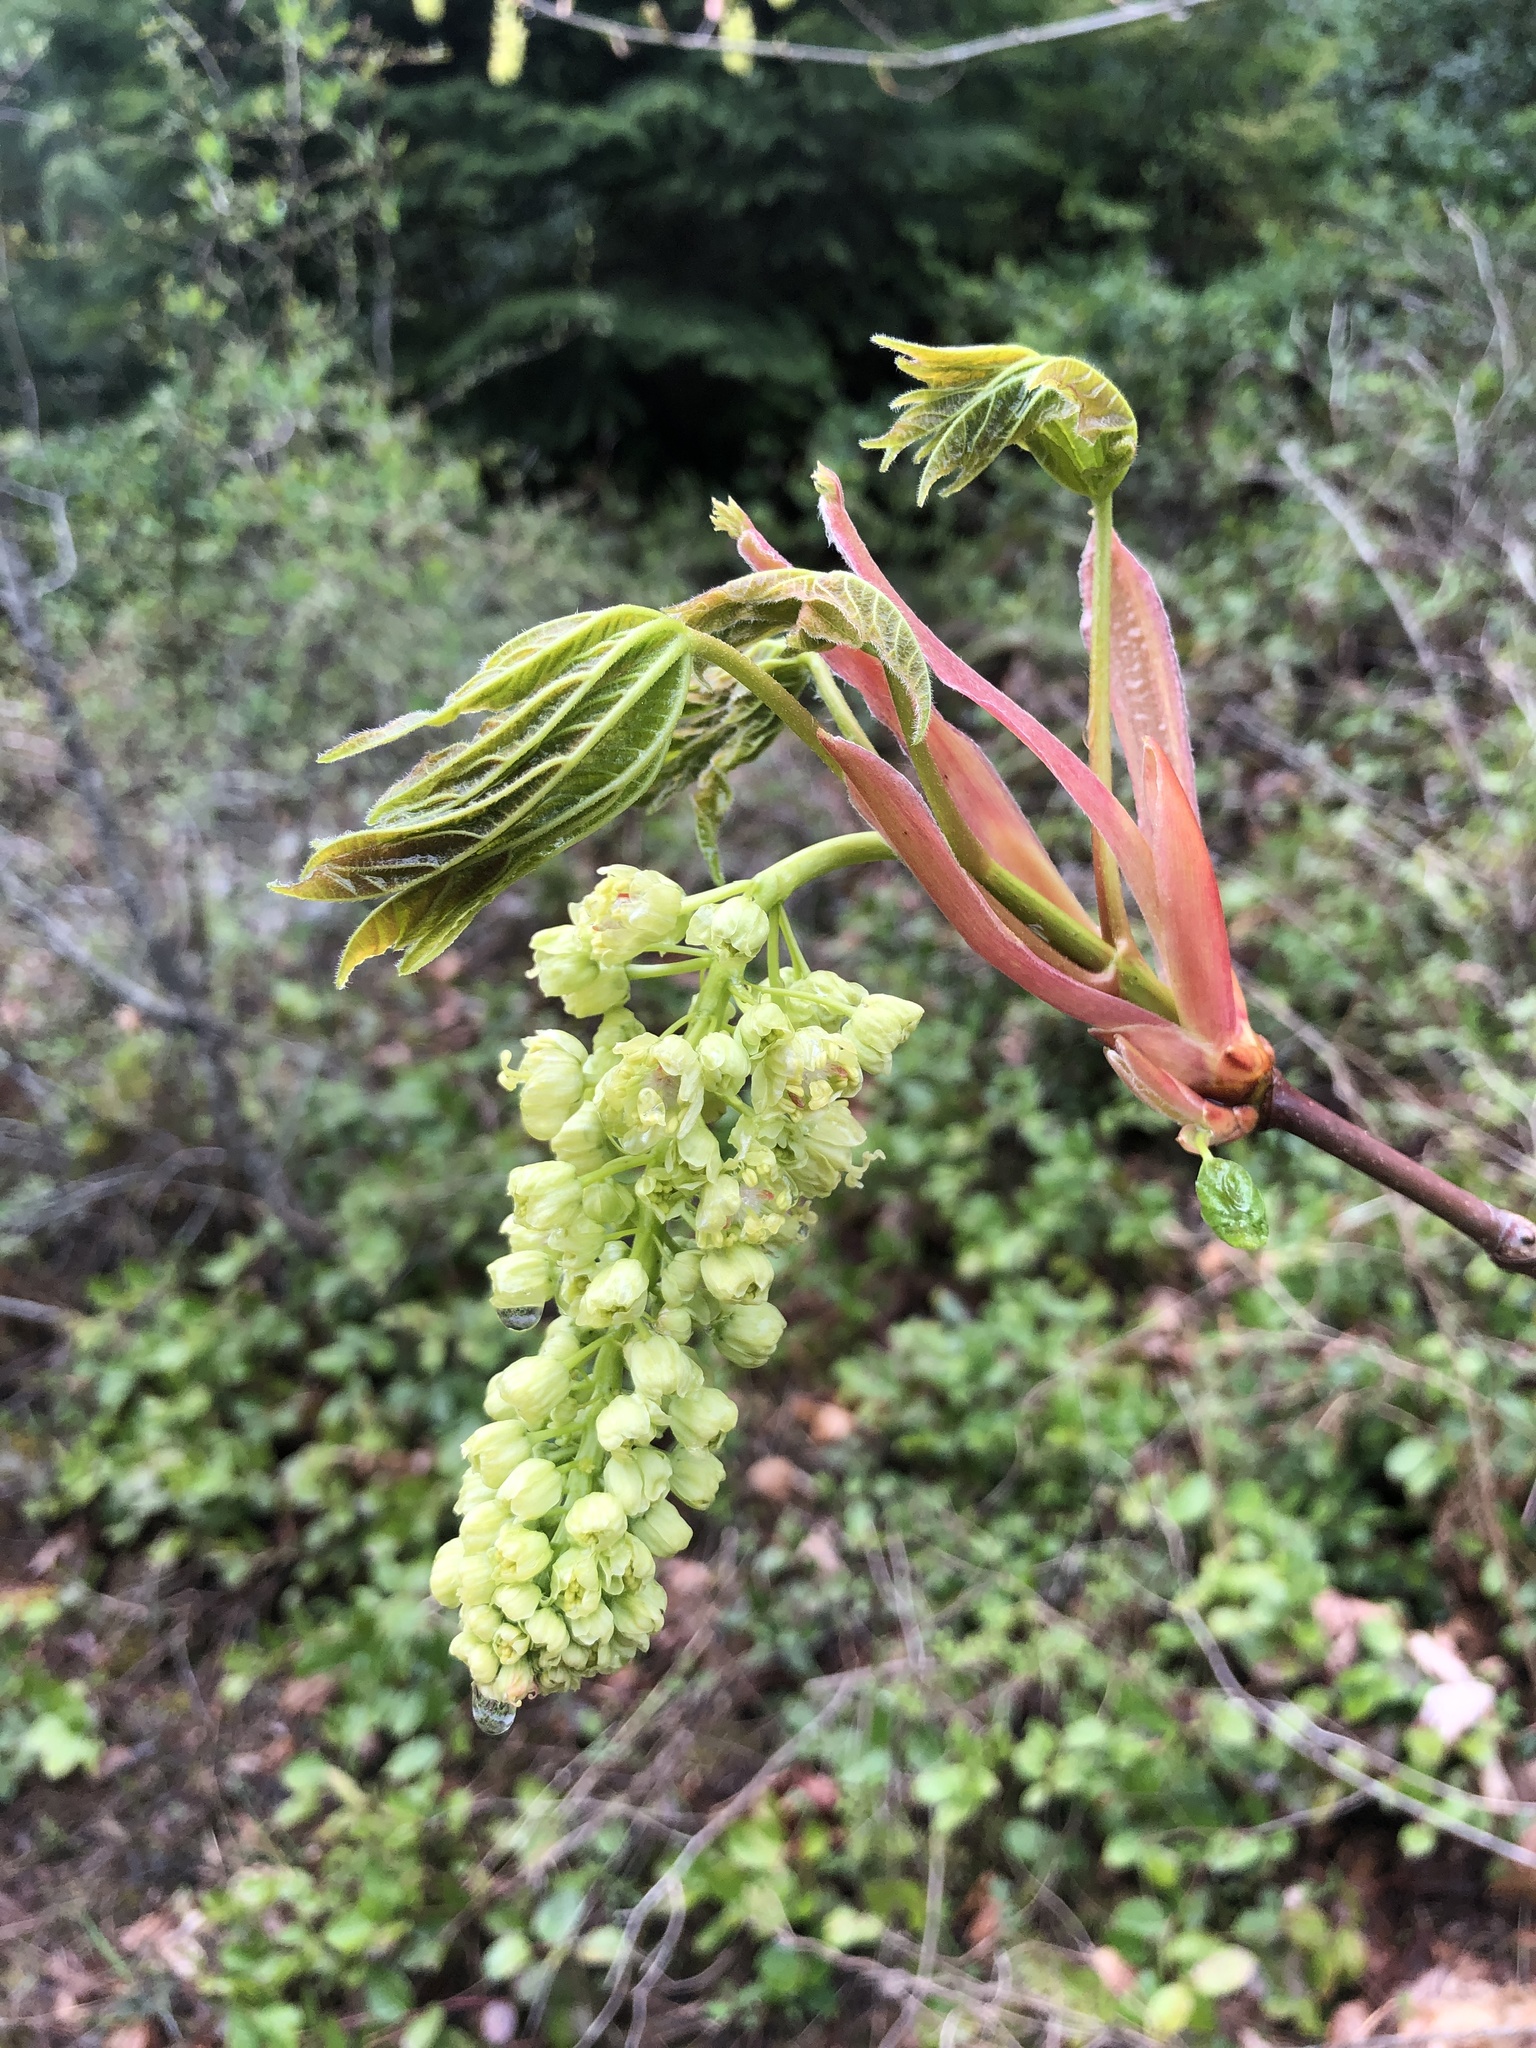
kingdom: Plantae
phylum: Tracheophyta
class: Magnoliopsida
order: Sapindales
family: Sapindaceae
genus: Acer
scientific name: Acer macrophyllum
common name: Oregon maple
